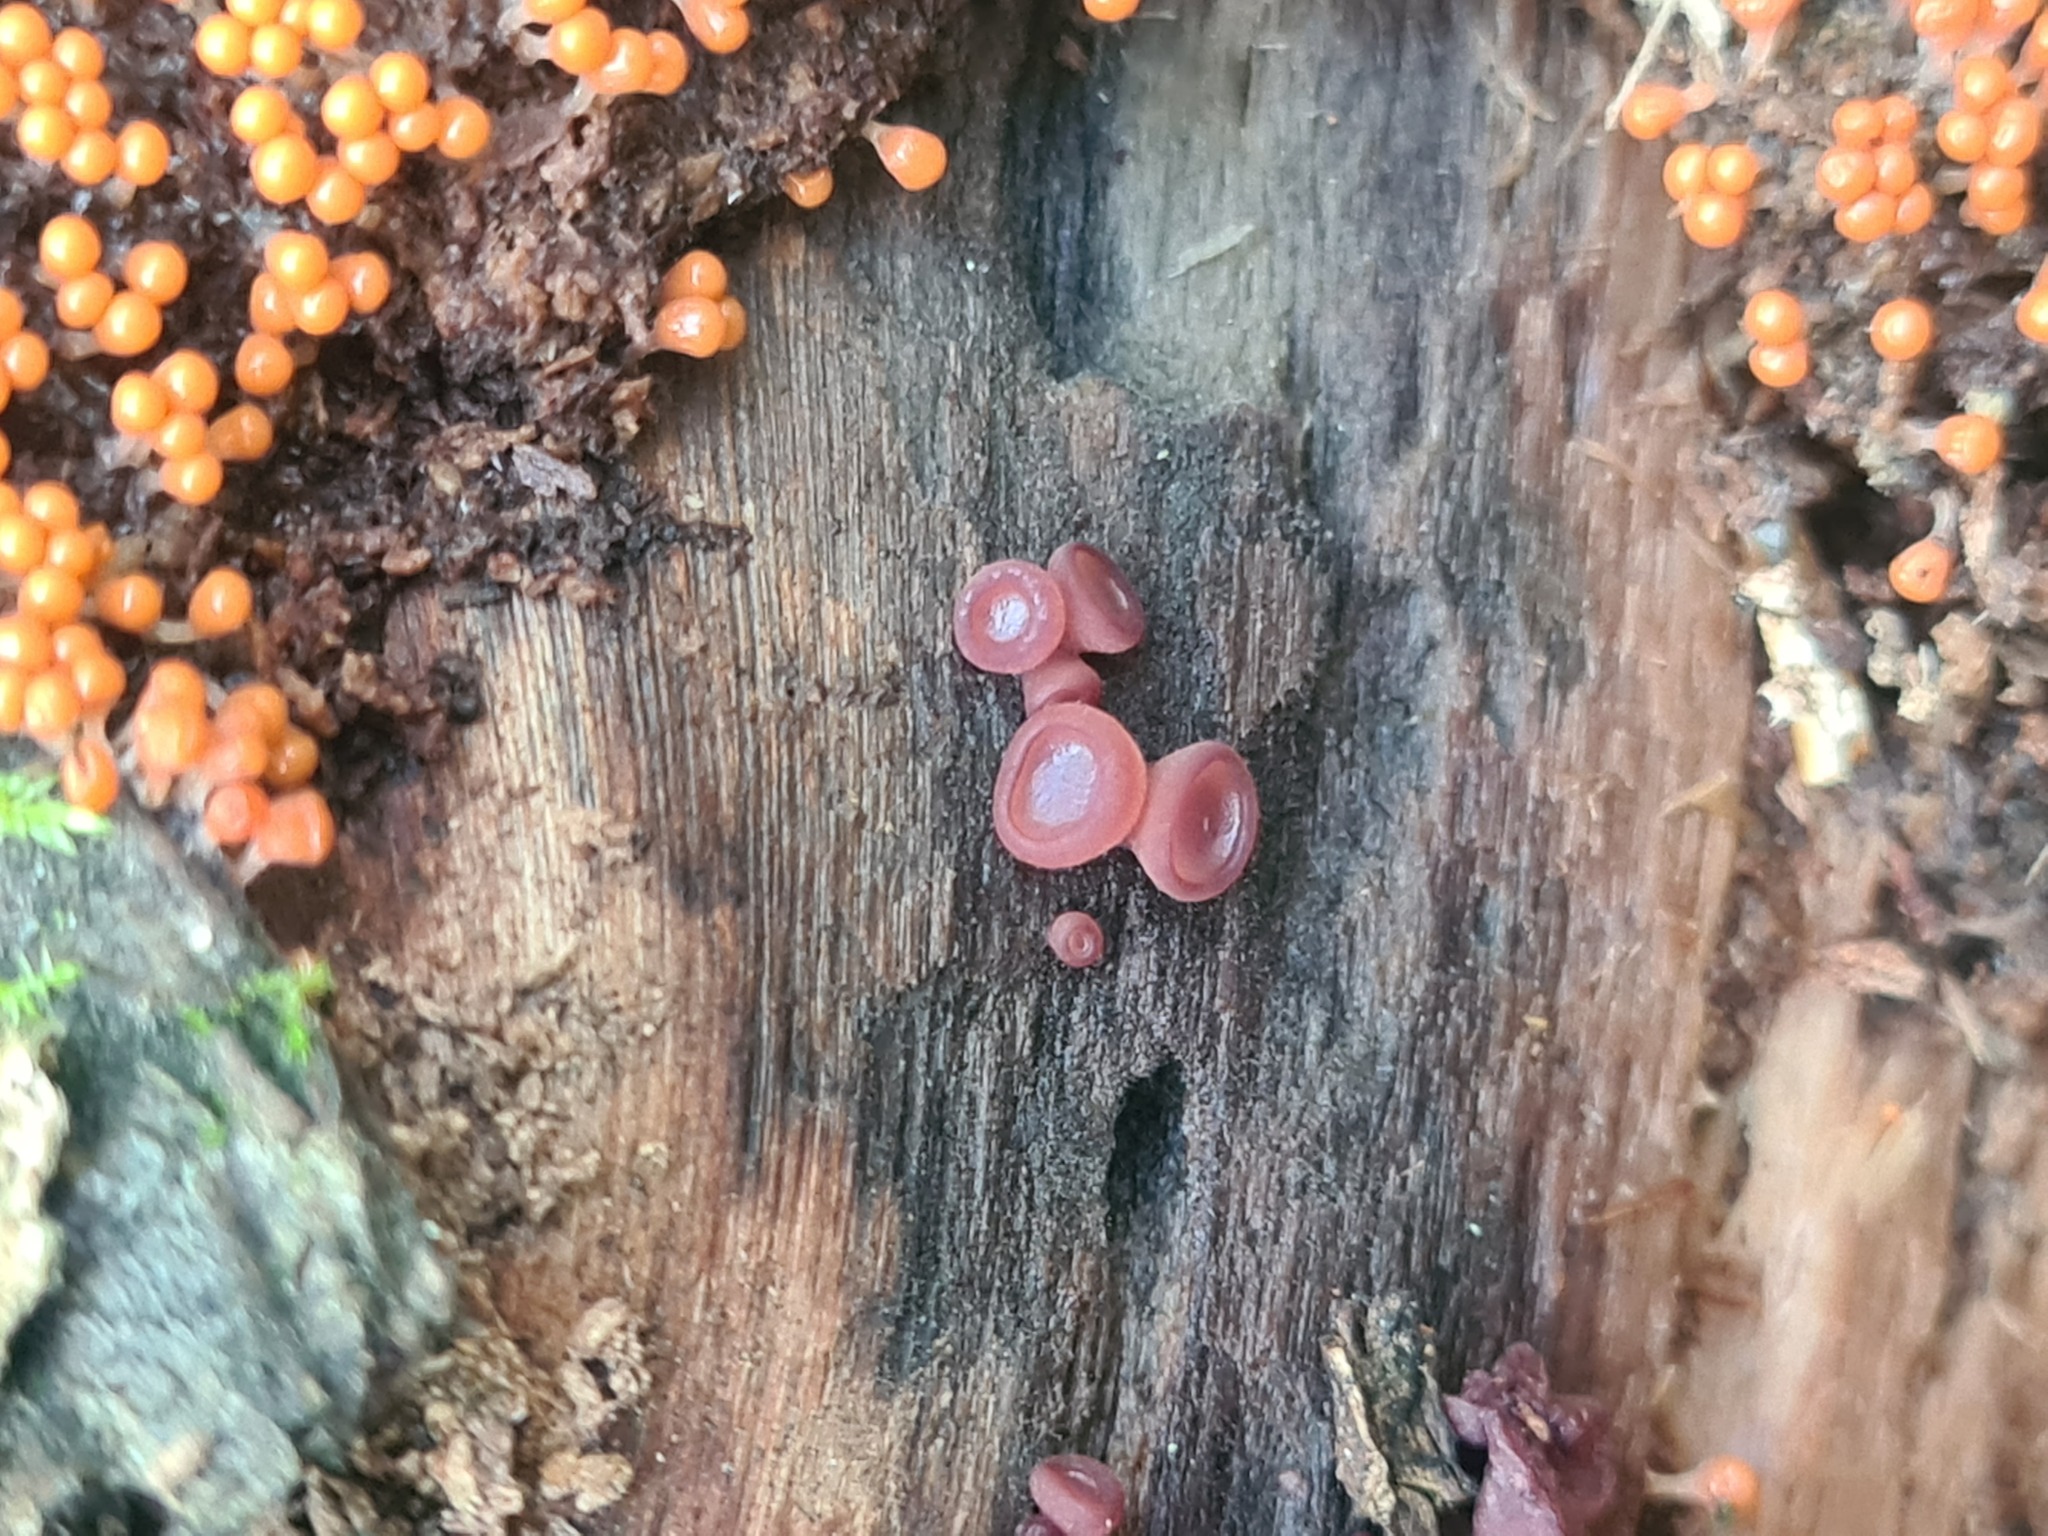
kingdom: Fungi
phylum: Ascomycota
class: Leotiomycetes
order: Helotiales
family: Gelatinodiscaceae
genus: Ascocoryne
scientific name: Ascocoryne sarcoides
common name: Purple jellydisc
